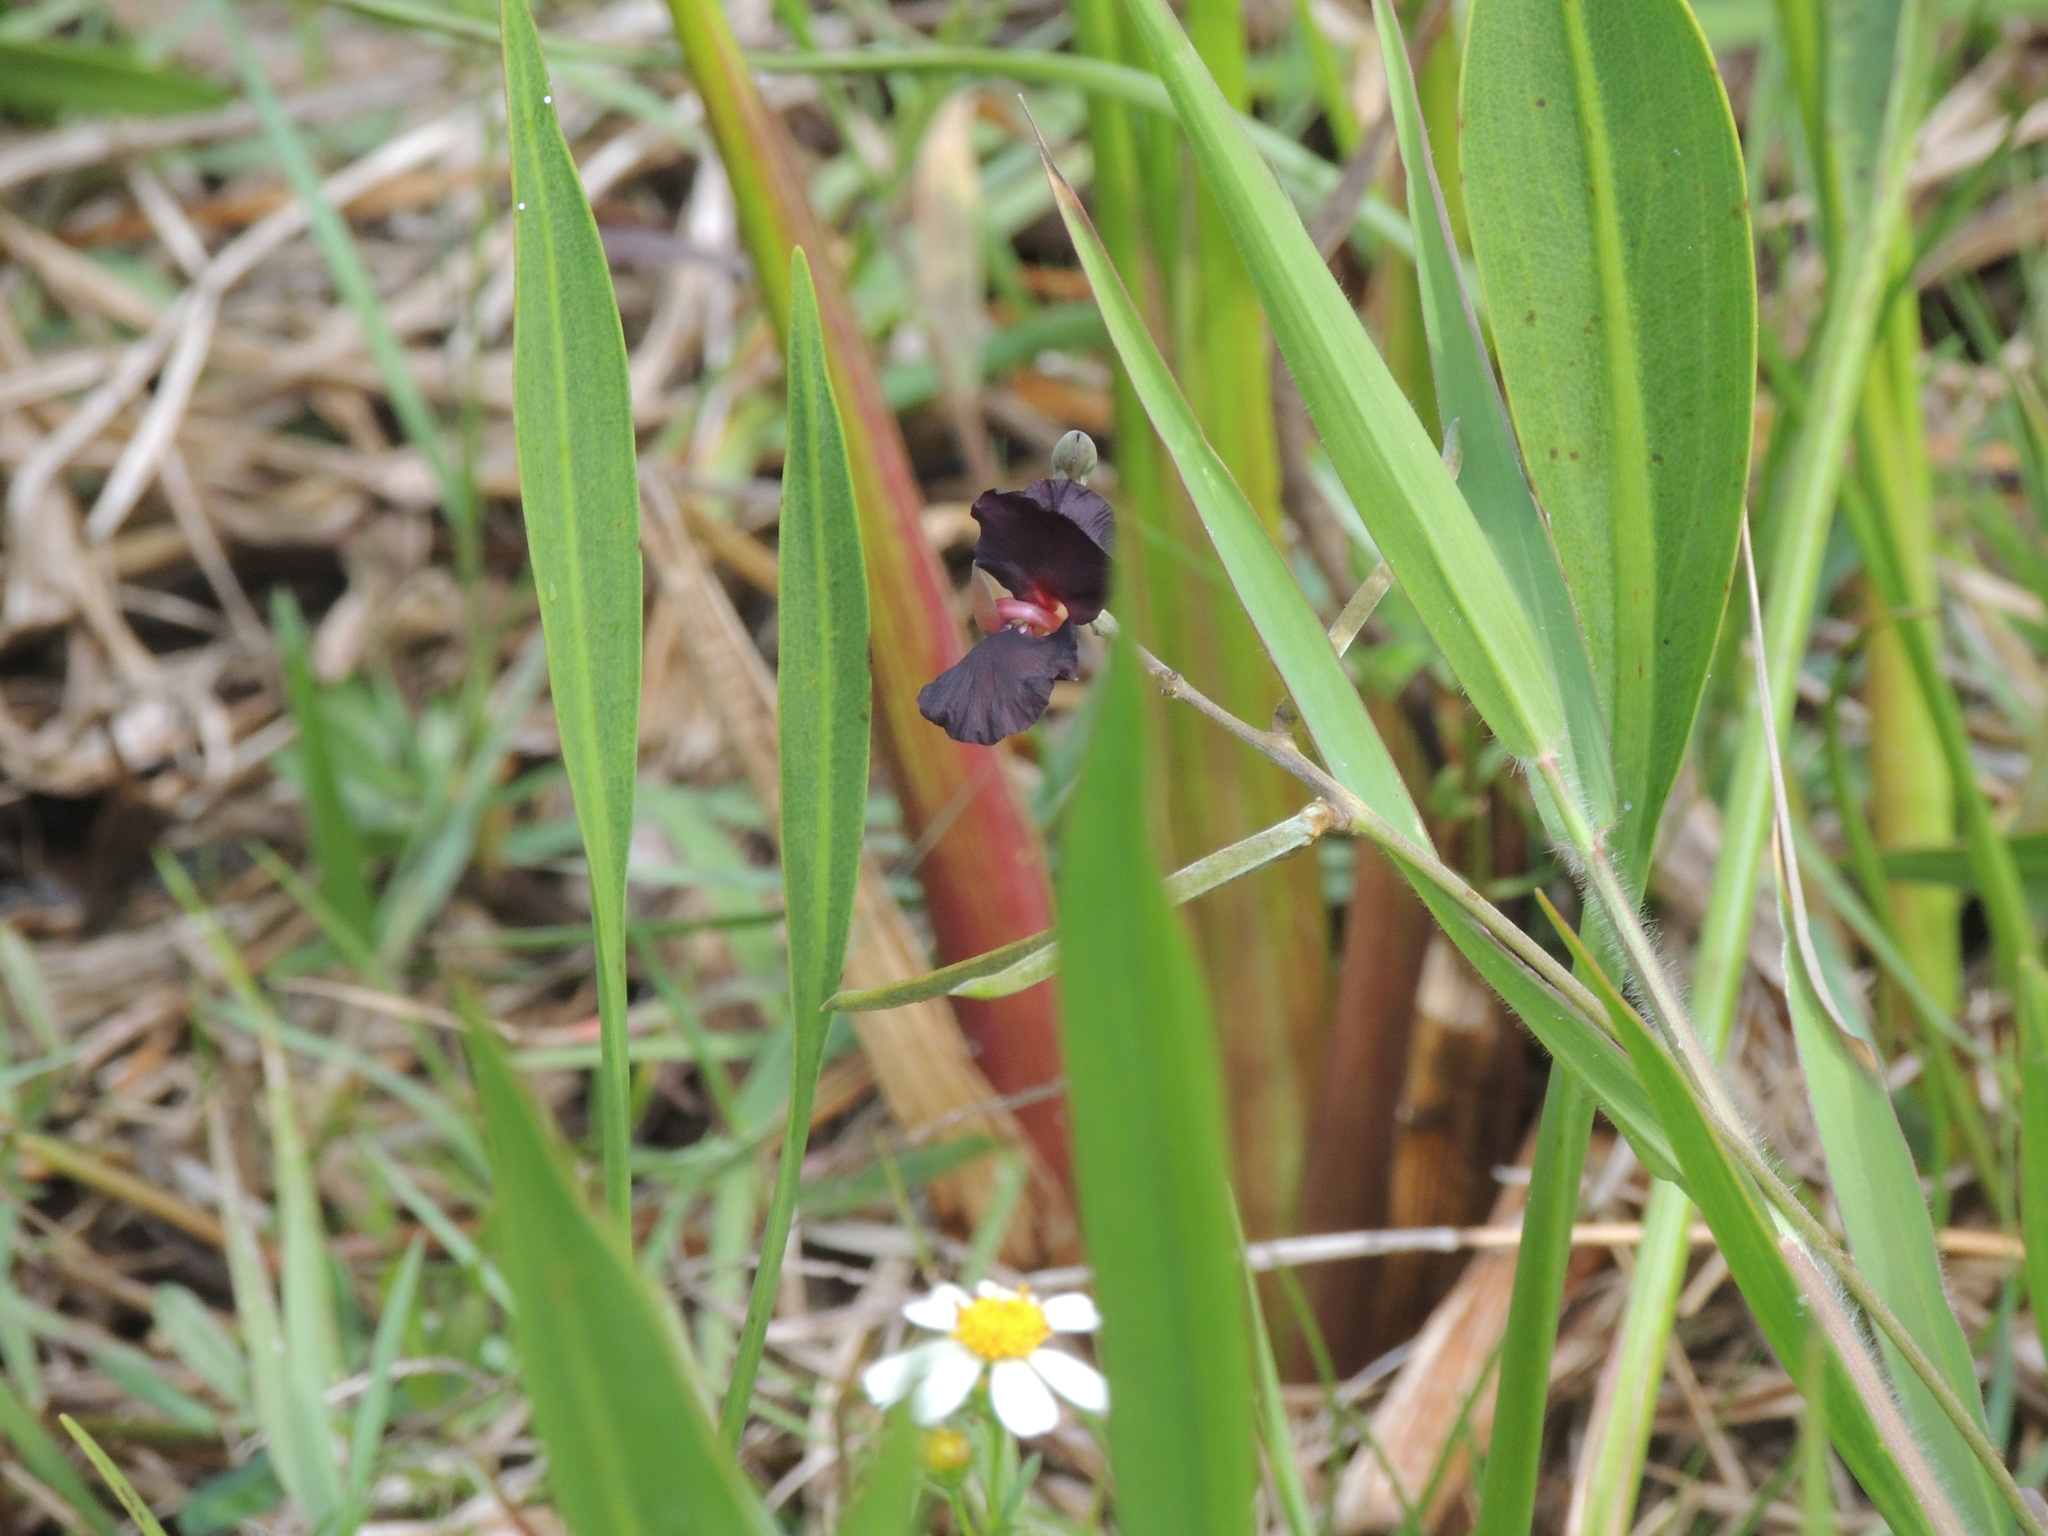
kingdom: Plantae
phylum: Tracheophyta
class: Magnoliopsida
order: Fabales
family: Fabaceae
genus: Macroptilium
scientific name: Macroptilium atropurpureum
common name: Purple bushbean
